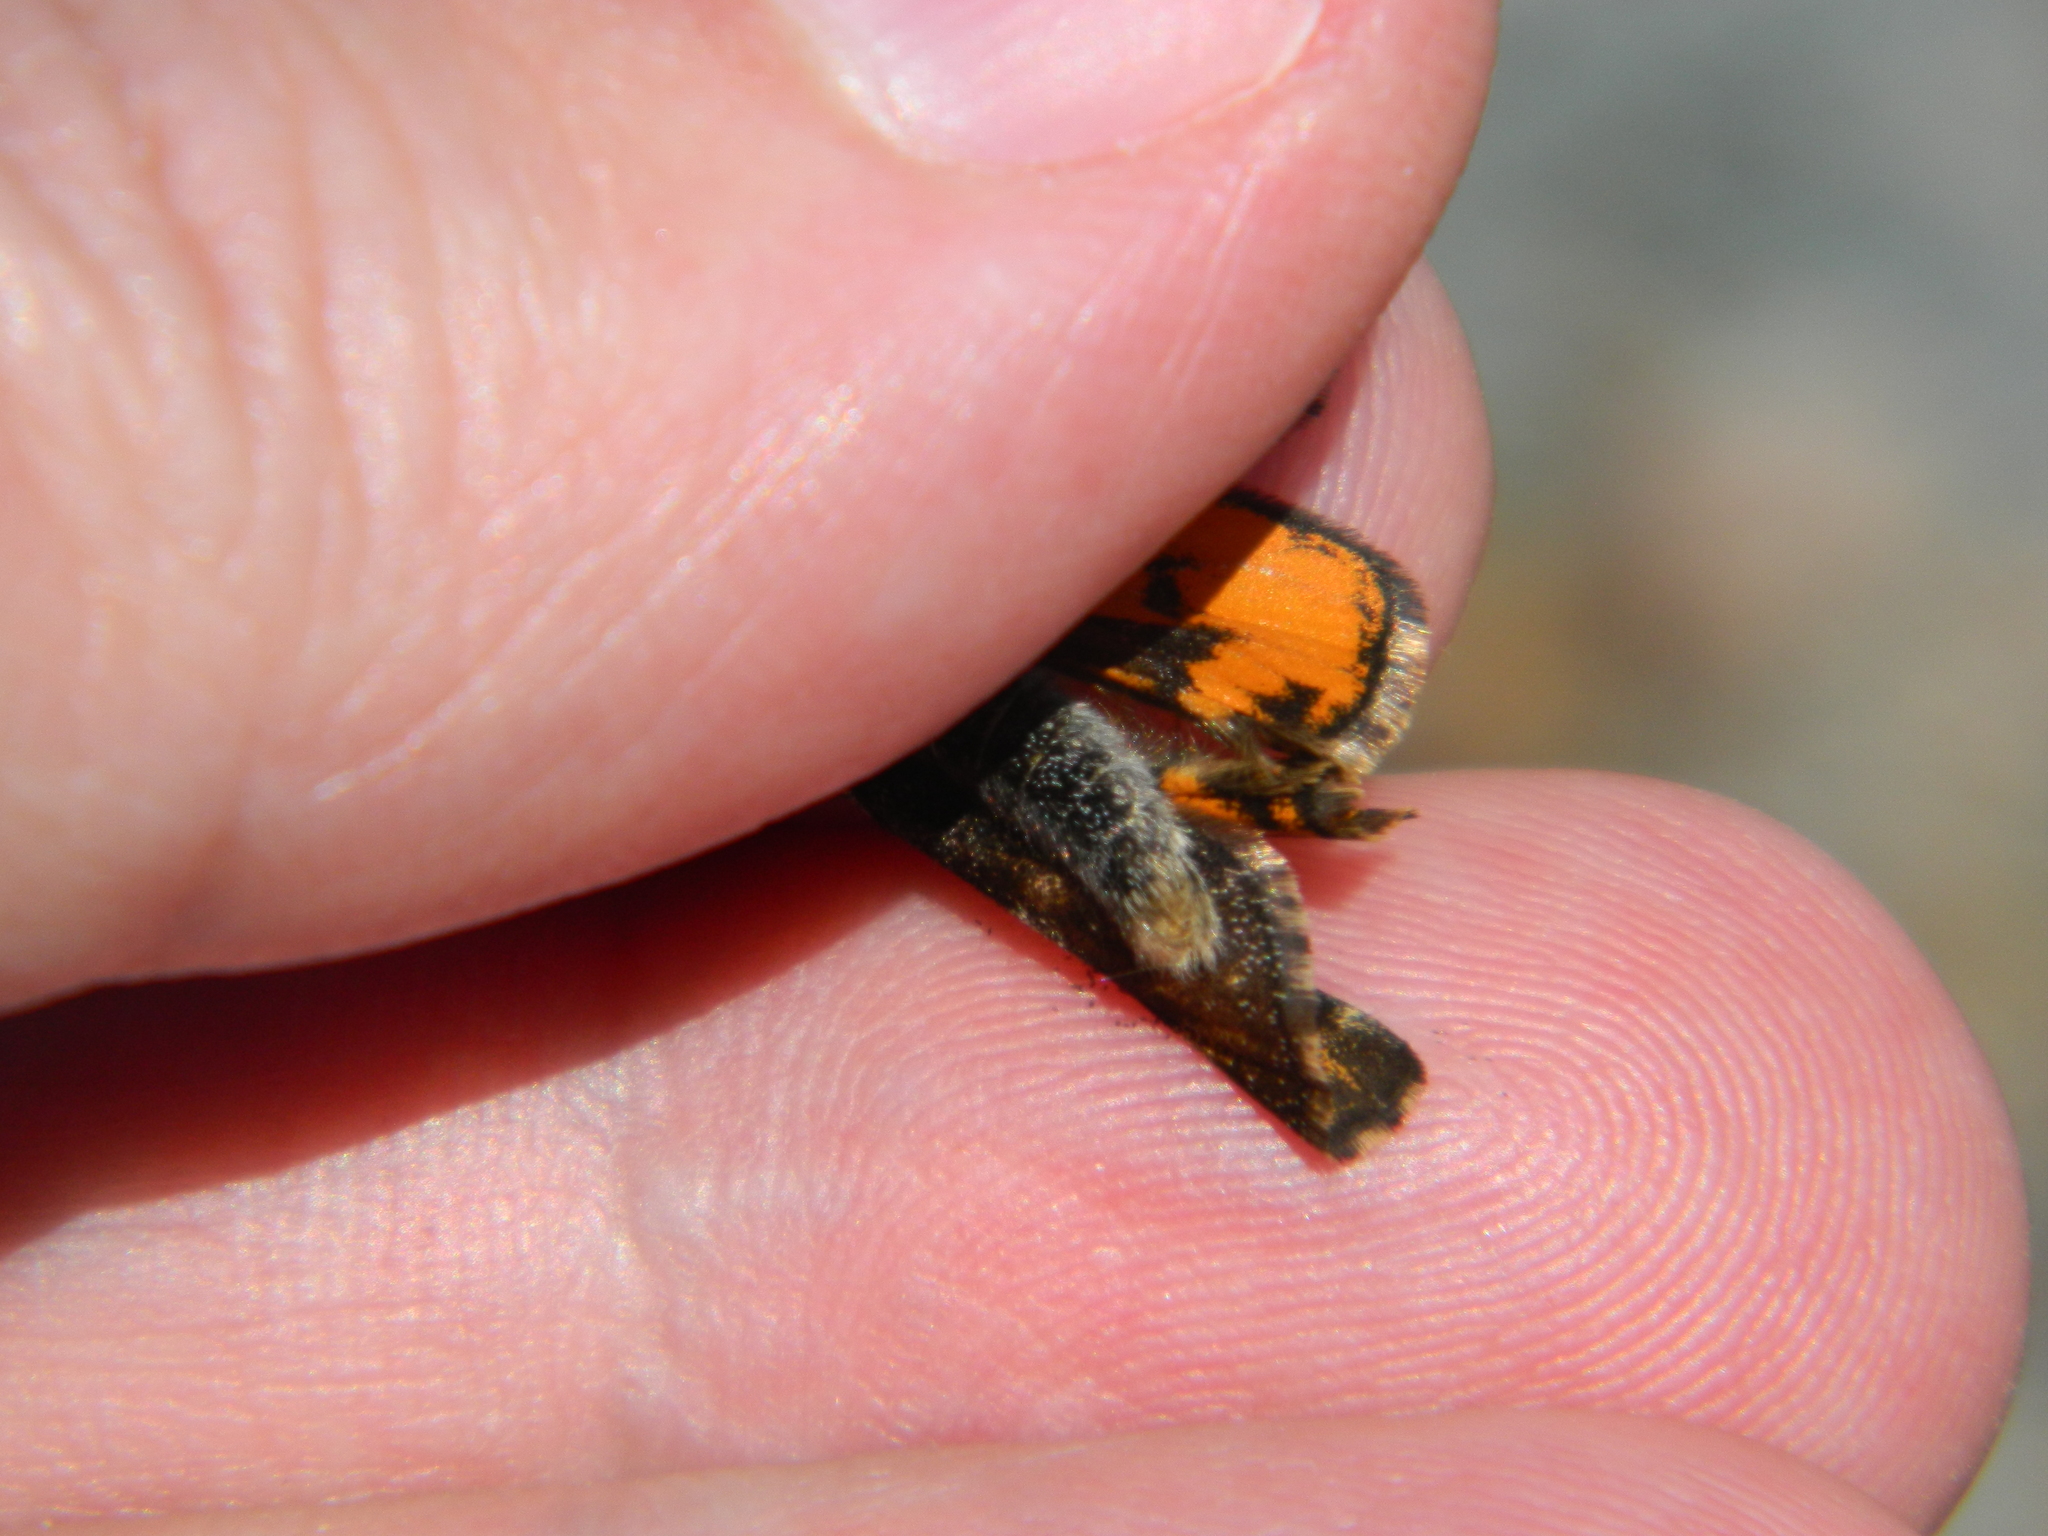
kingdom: Animalia
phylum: Arthropoda
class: Insecta
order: Lepidoptera
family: Geometridae
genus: Archiearis
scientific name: Archiearis infans
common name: First born geometer
